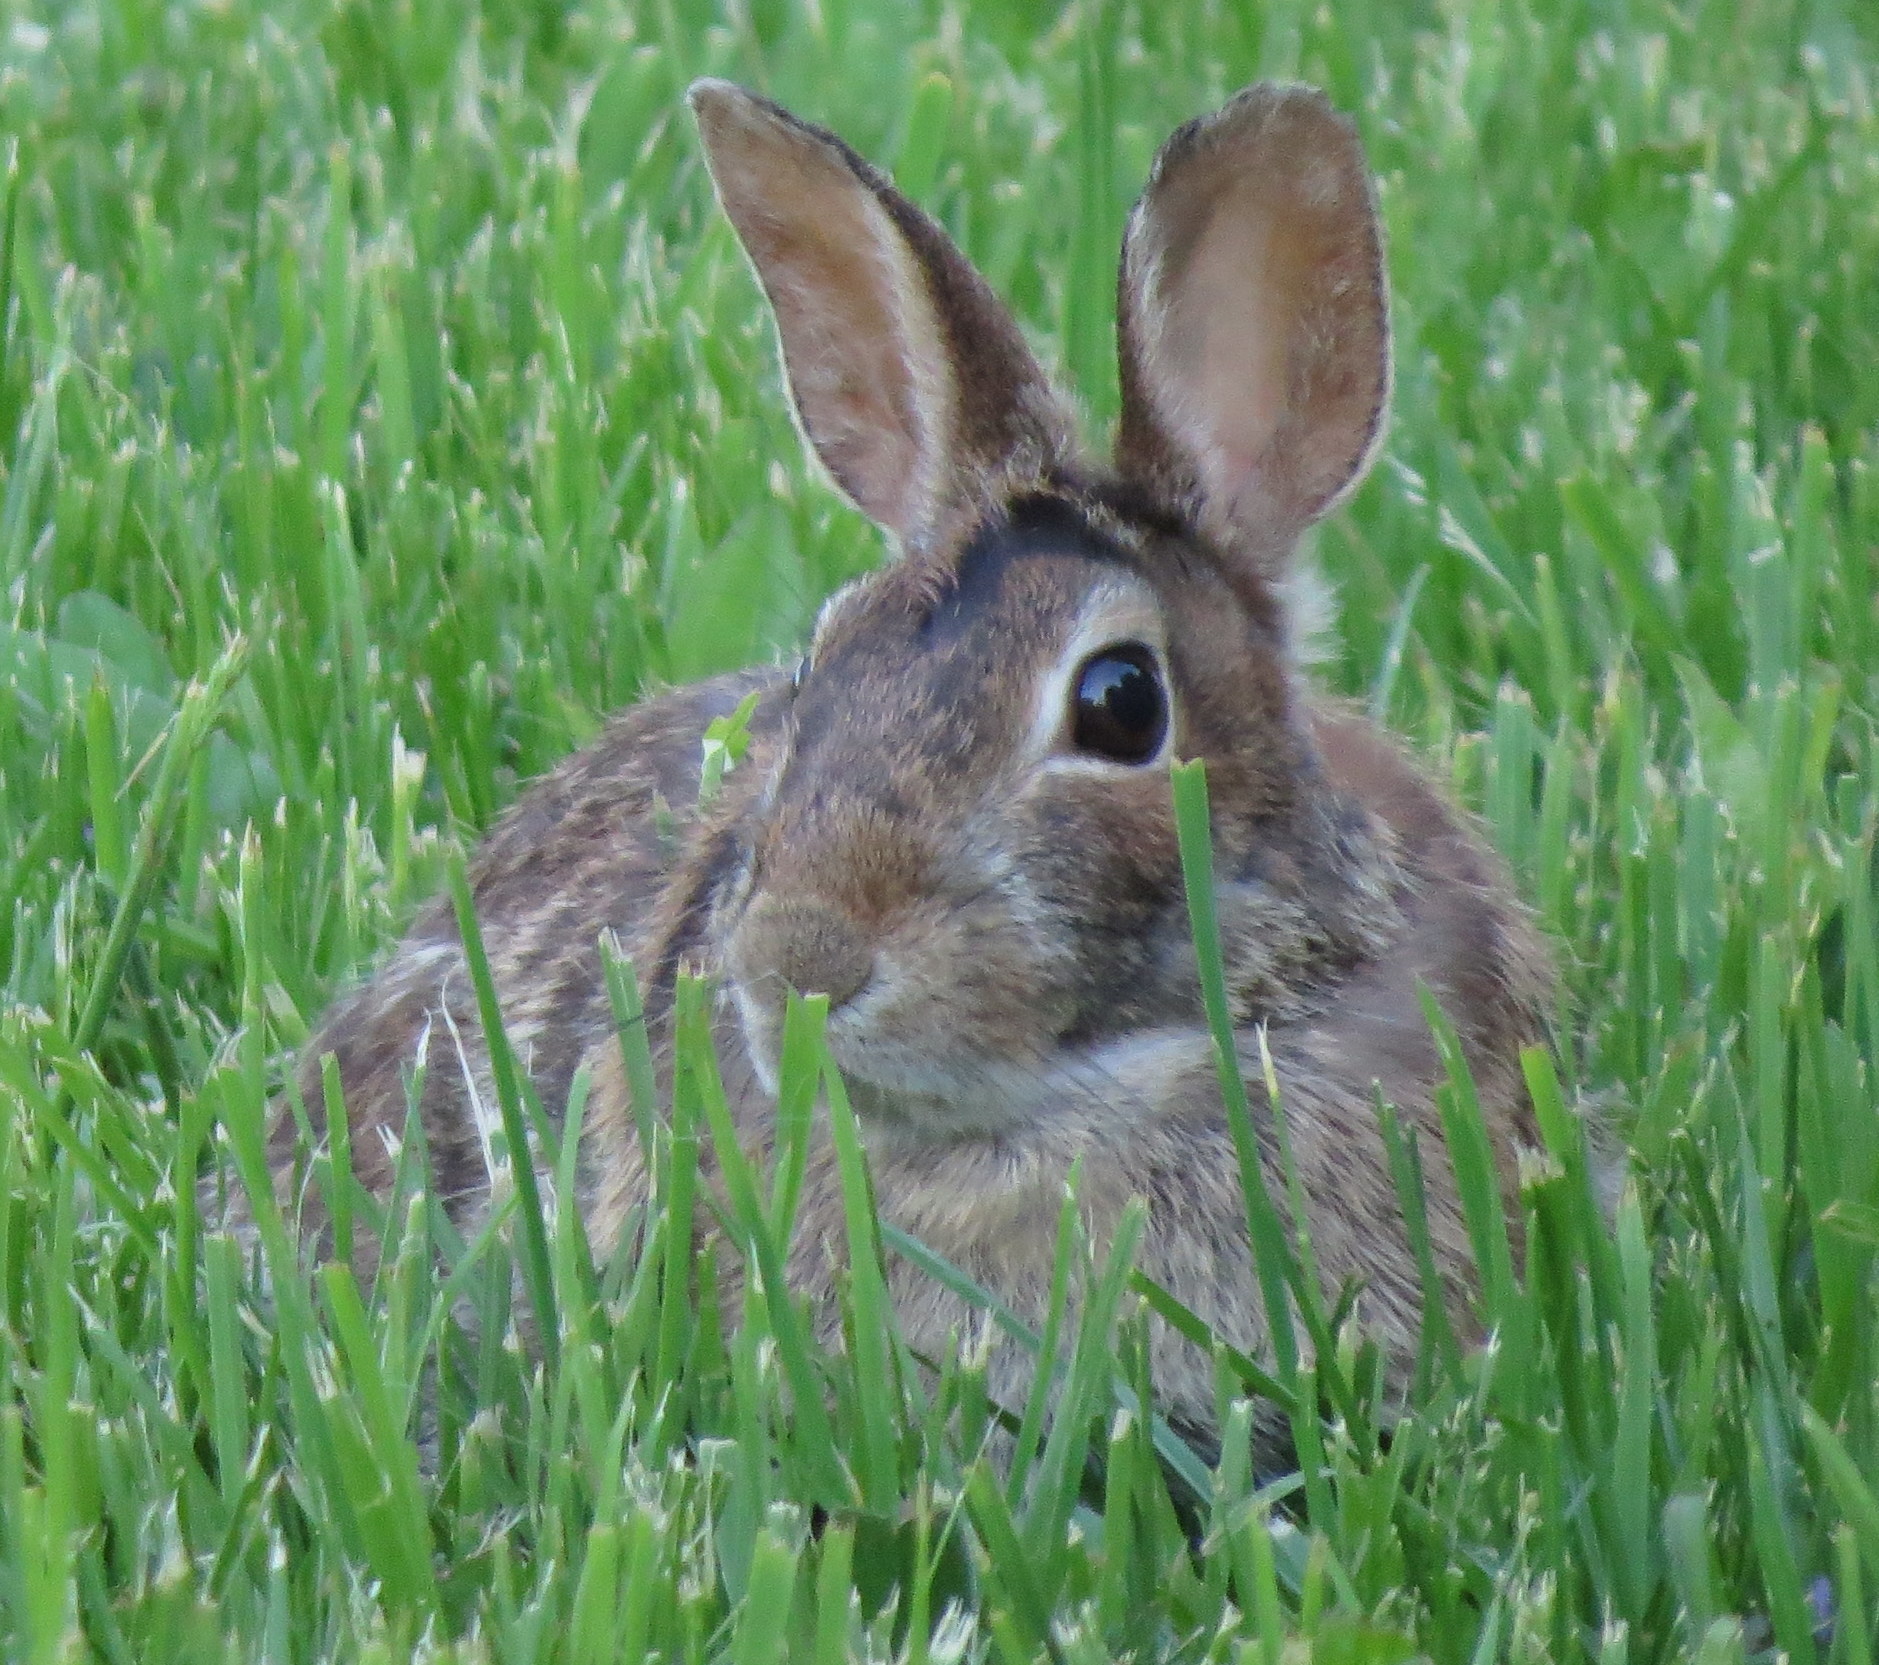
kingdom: Animalia
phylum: Chordata
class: Mammalia
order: Lagomorpha
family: Leporidae
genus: Sylvilagus
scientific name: Sylvilagus floridanus
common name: Eastern cottontail
